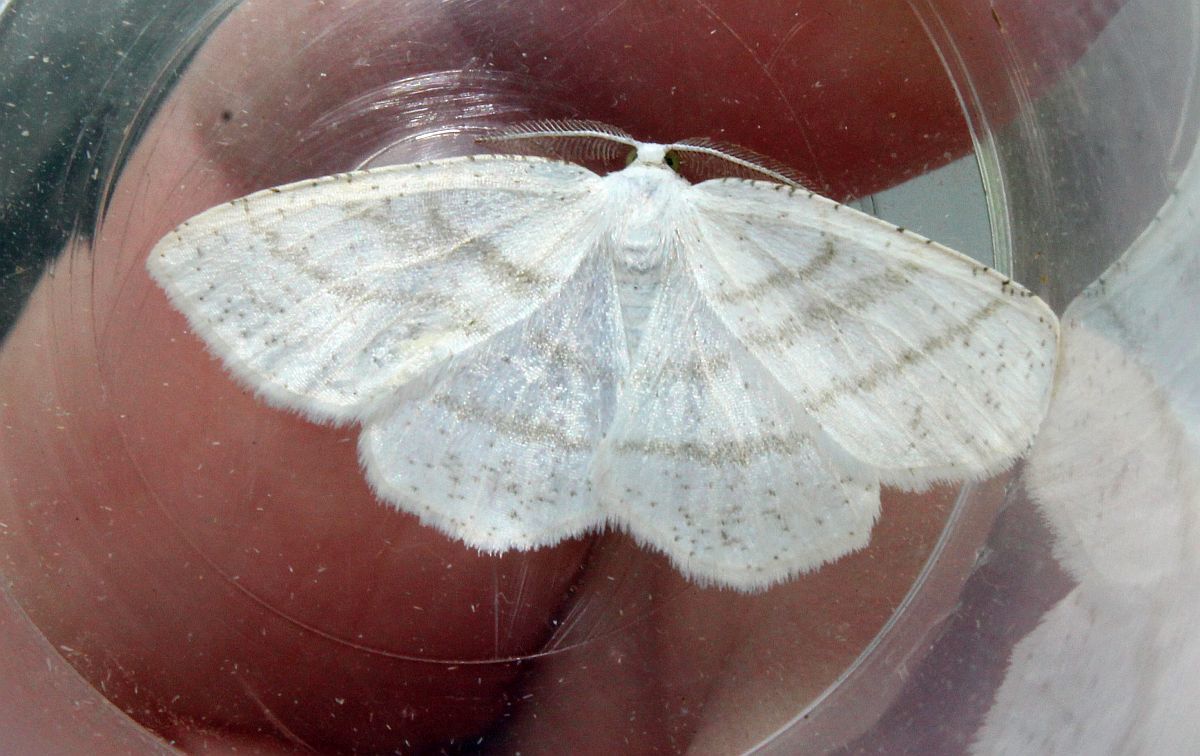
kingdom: Animalia
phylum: Arthropoda
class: Insecta
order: Lepidoptera
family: Geometridae
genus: Cabera
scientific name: Cabera pusaria
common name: Common white wave
